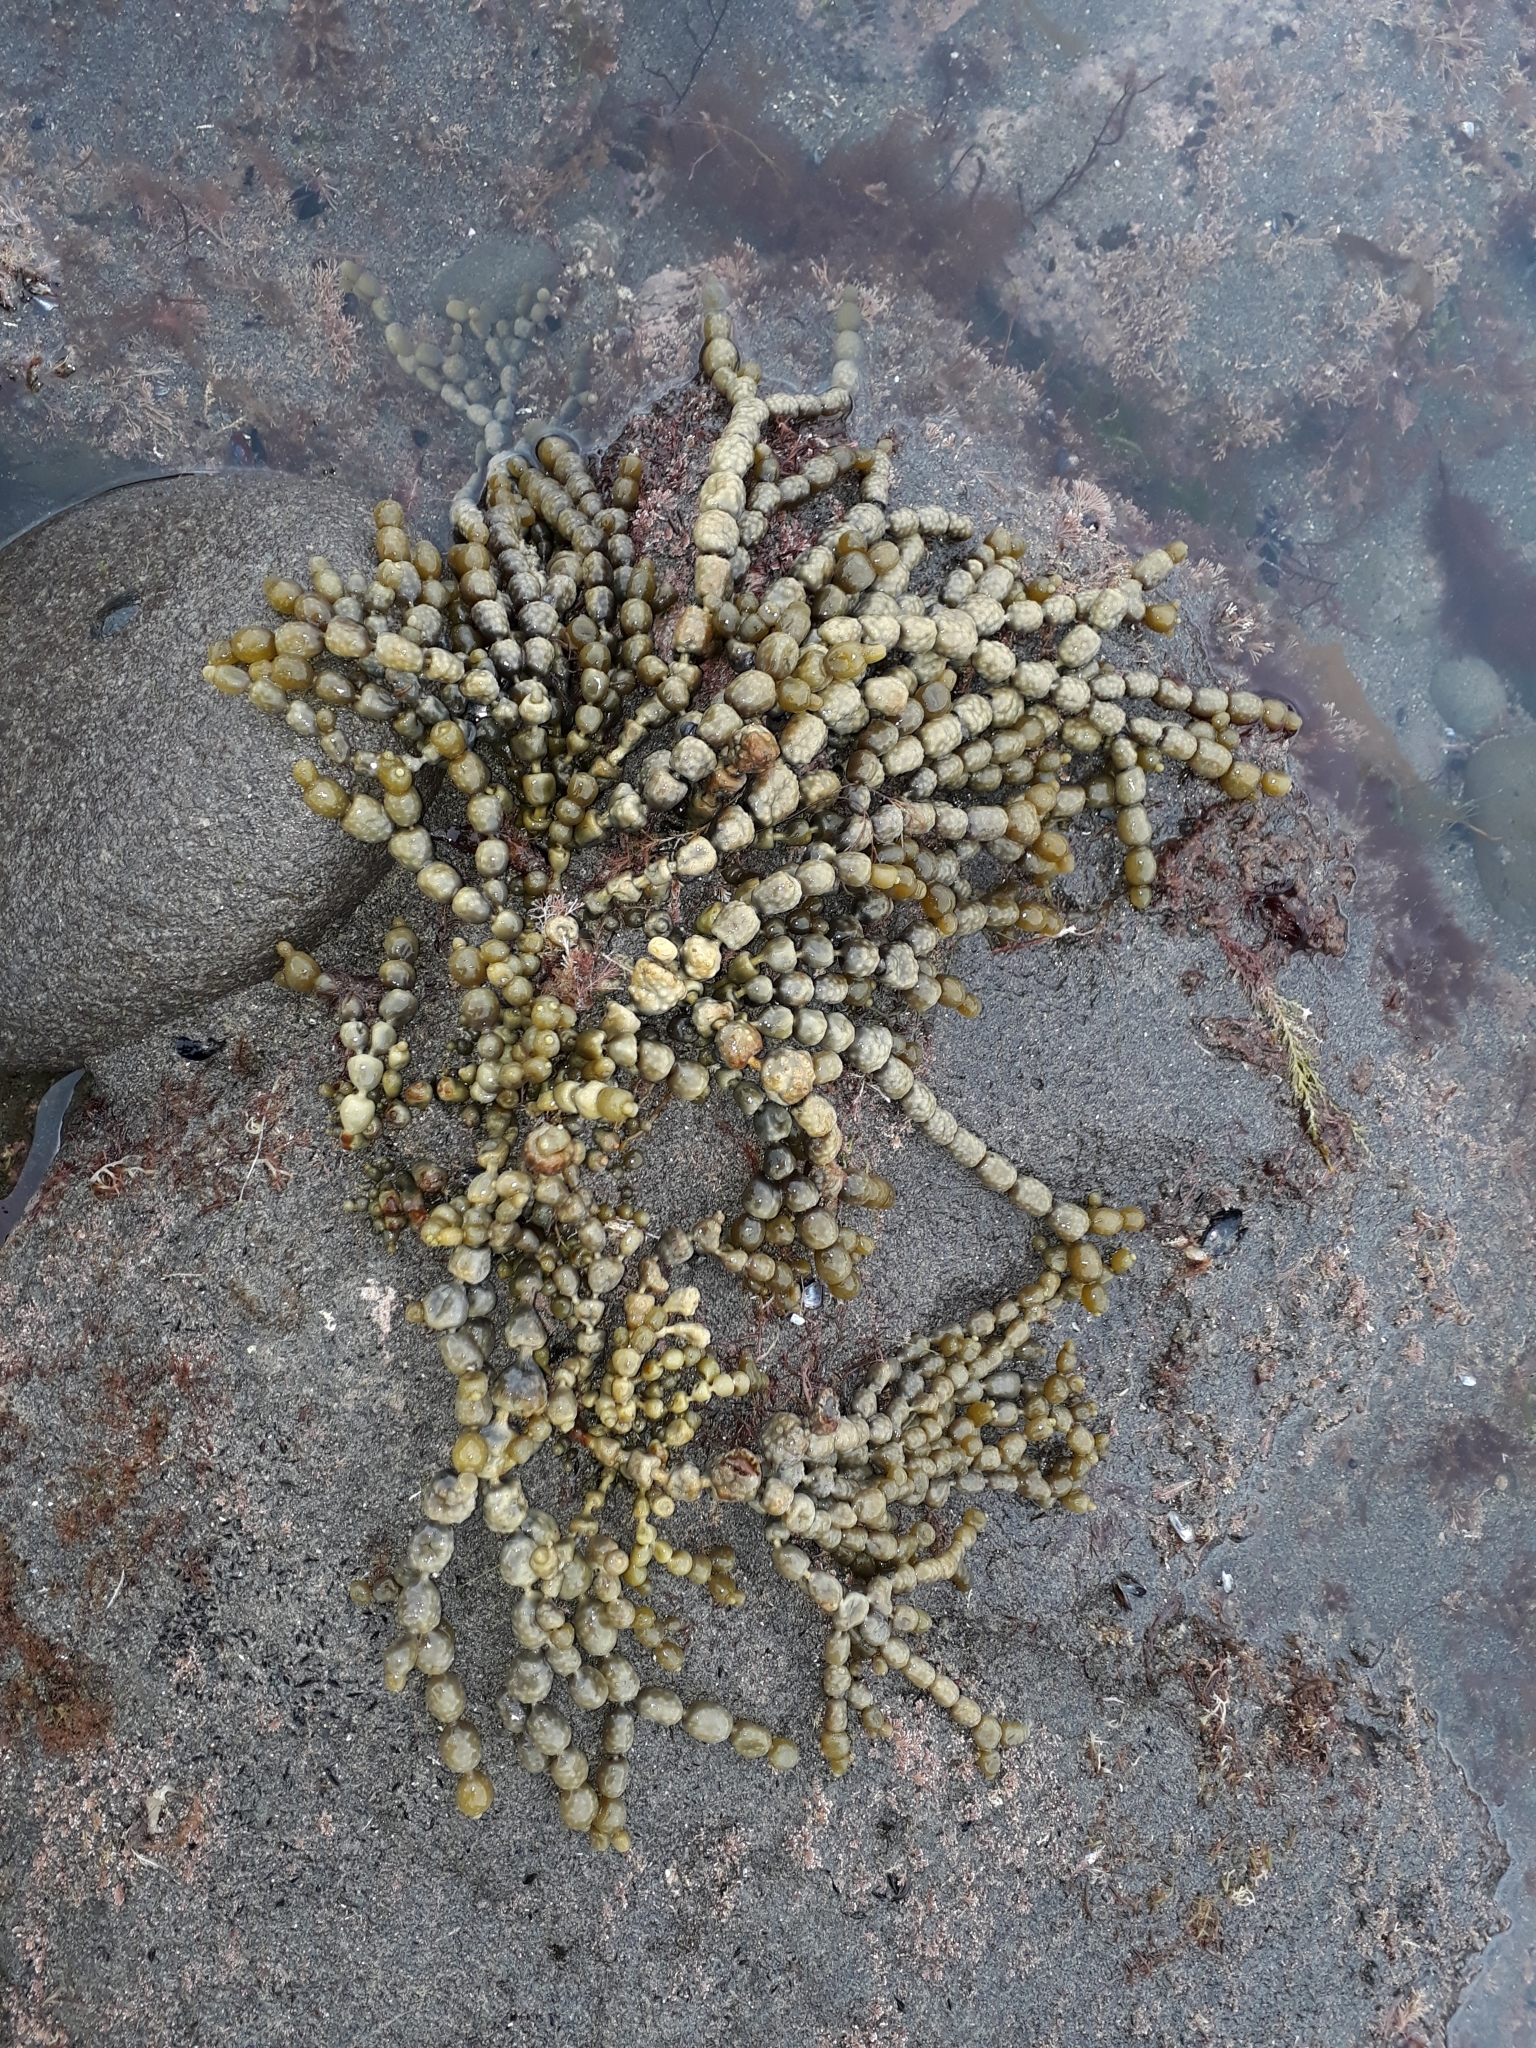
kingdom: Chromista
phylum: Ochrophyta
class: Phaeophyceae
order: Fucales
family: Hormosiraceae
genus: Hormosira
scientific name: Hormosira banksii
